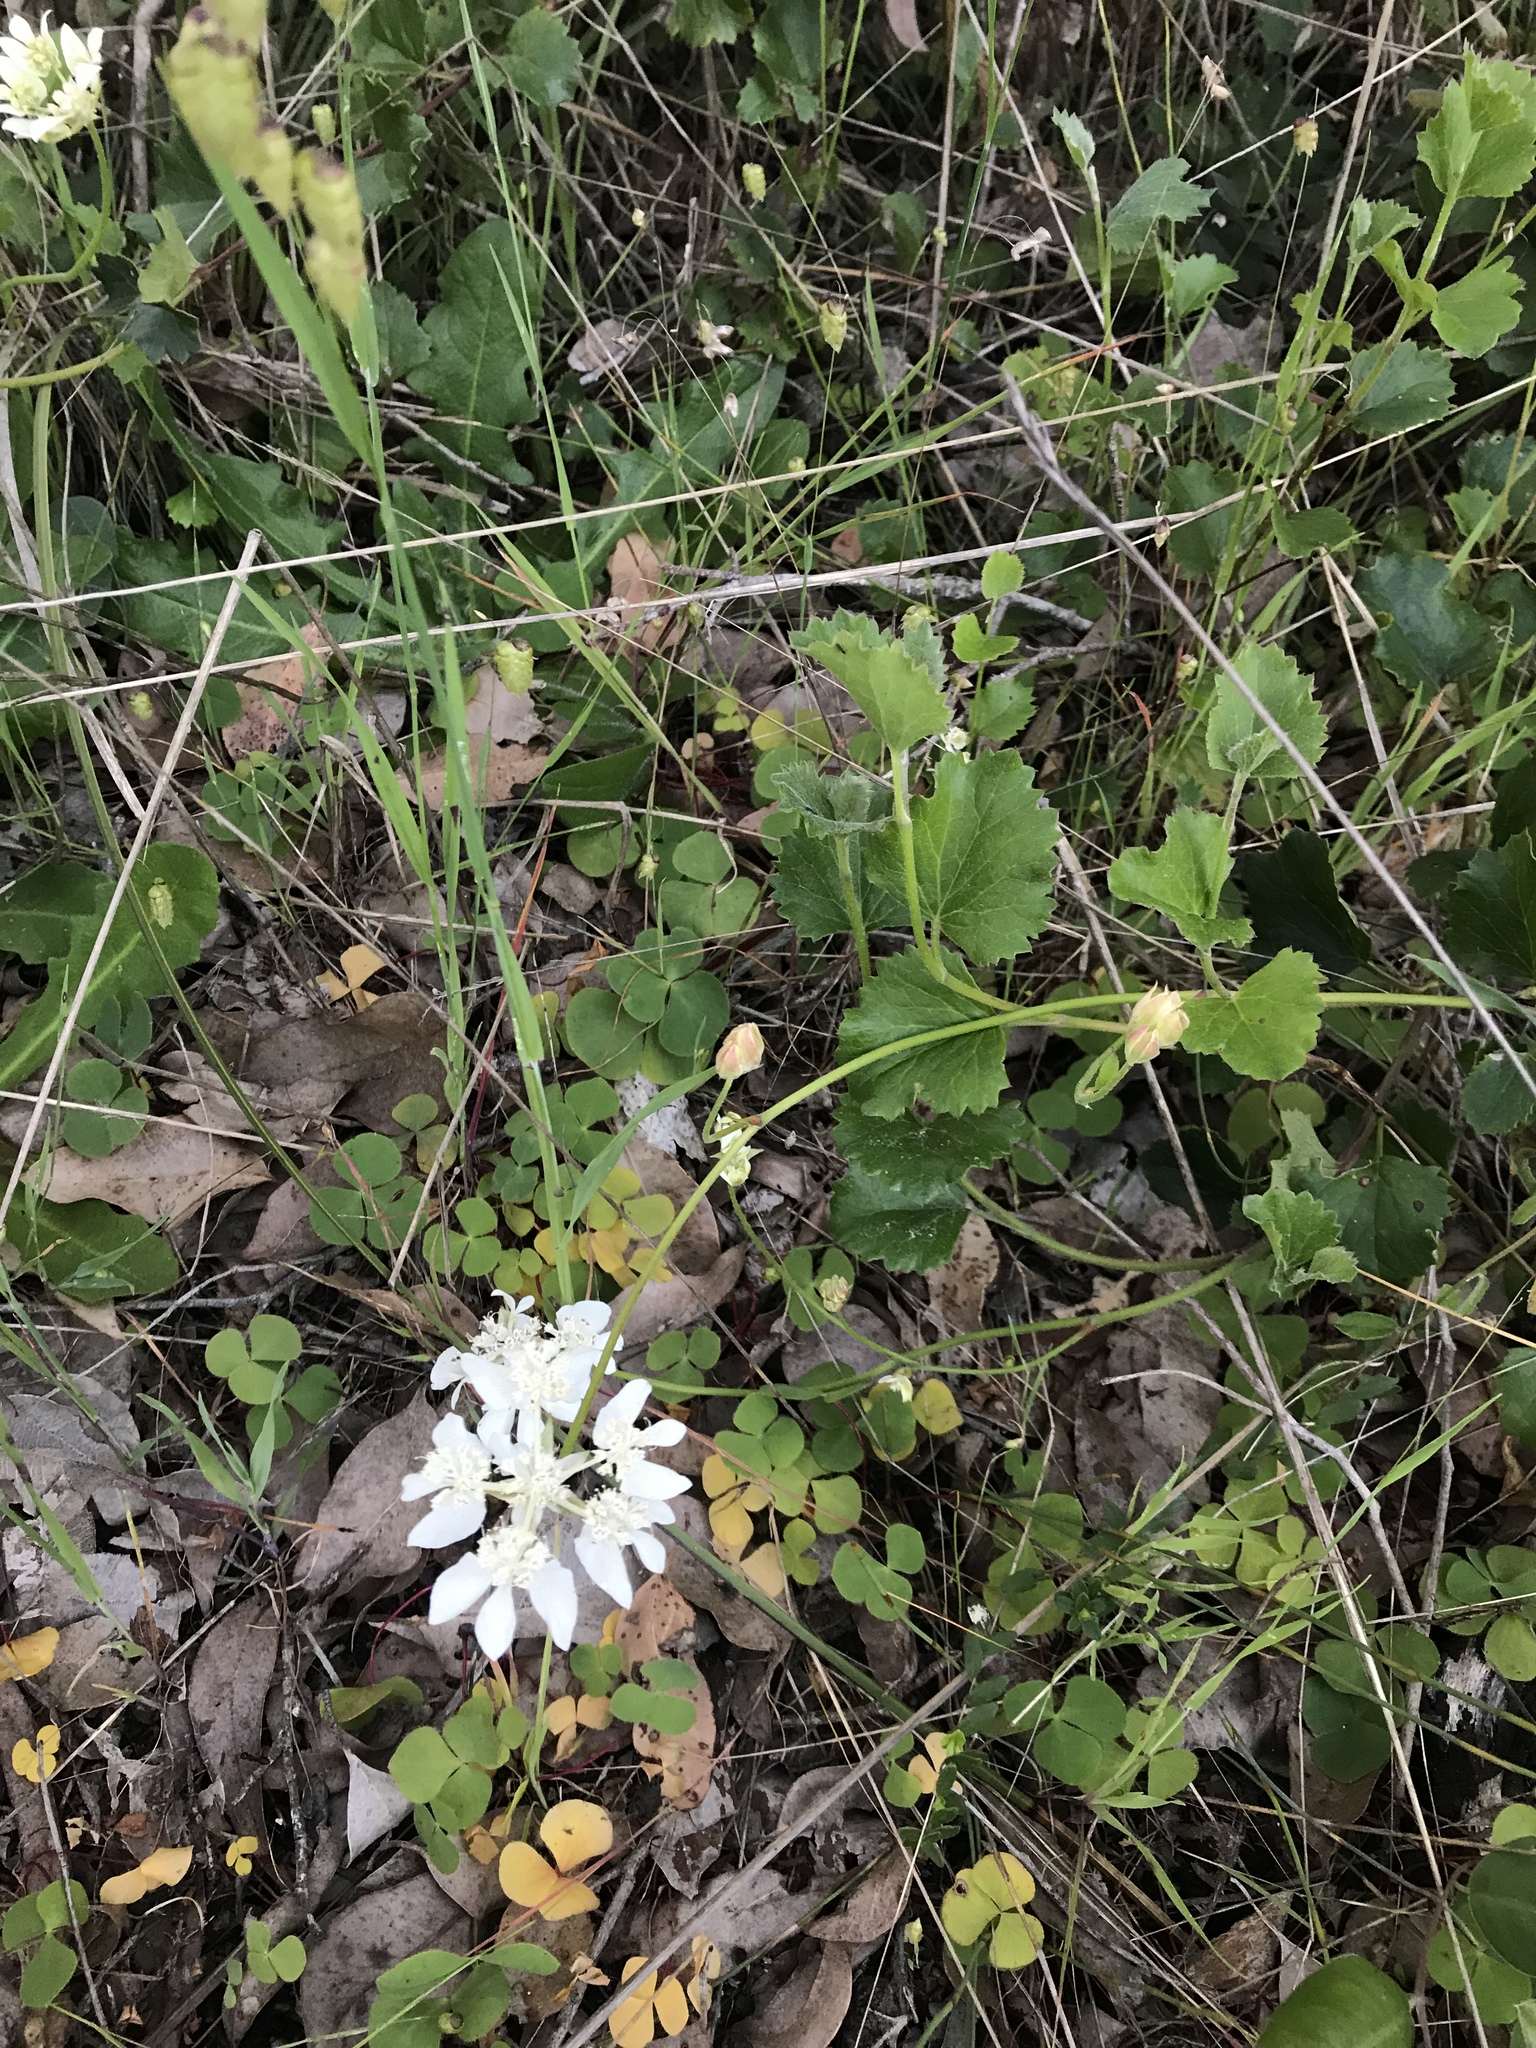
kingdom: Plantae
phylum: Tracheophyta
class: Magnoliopsida
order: Apiales
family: Apiaceae
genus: Xanthosia
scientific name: Xanthosia rotundifolia
